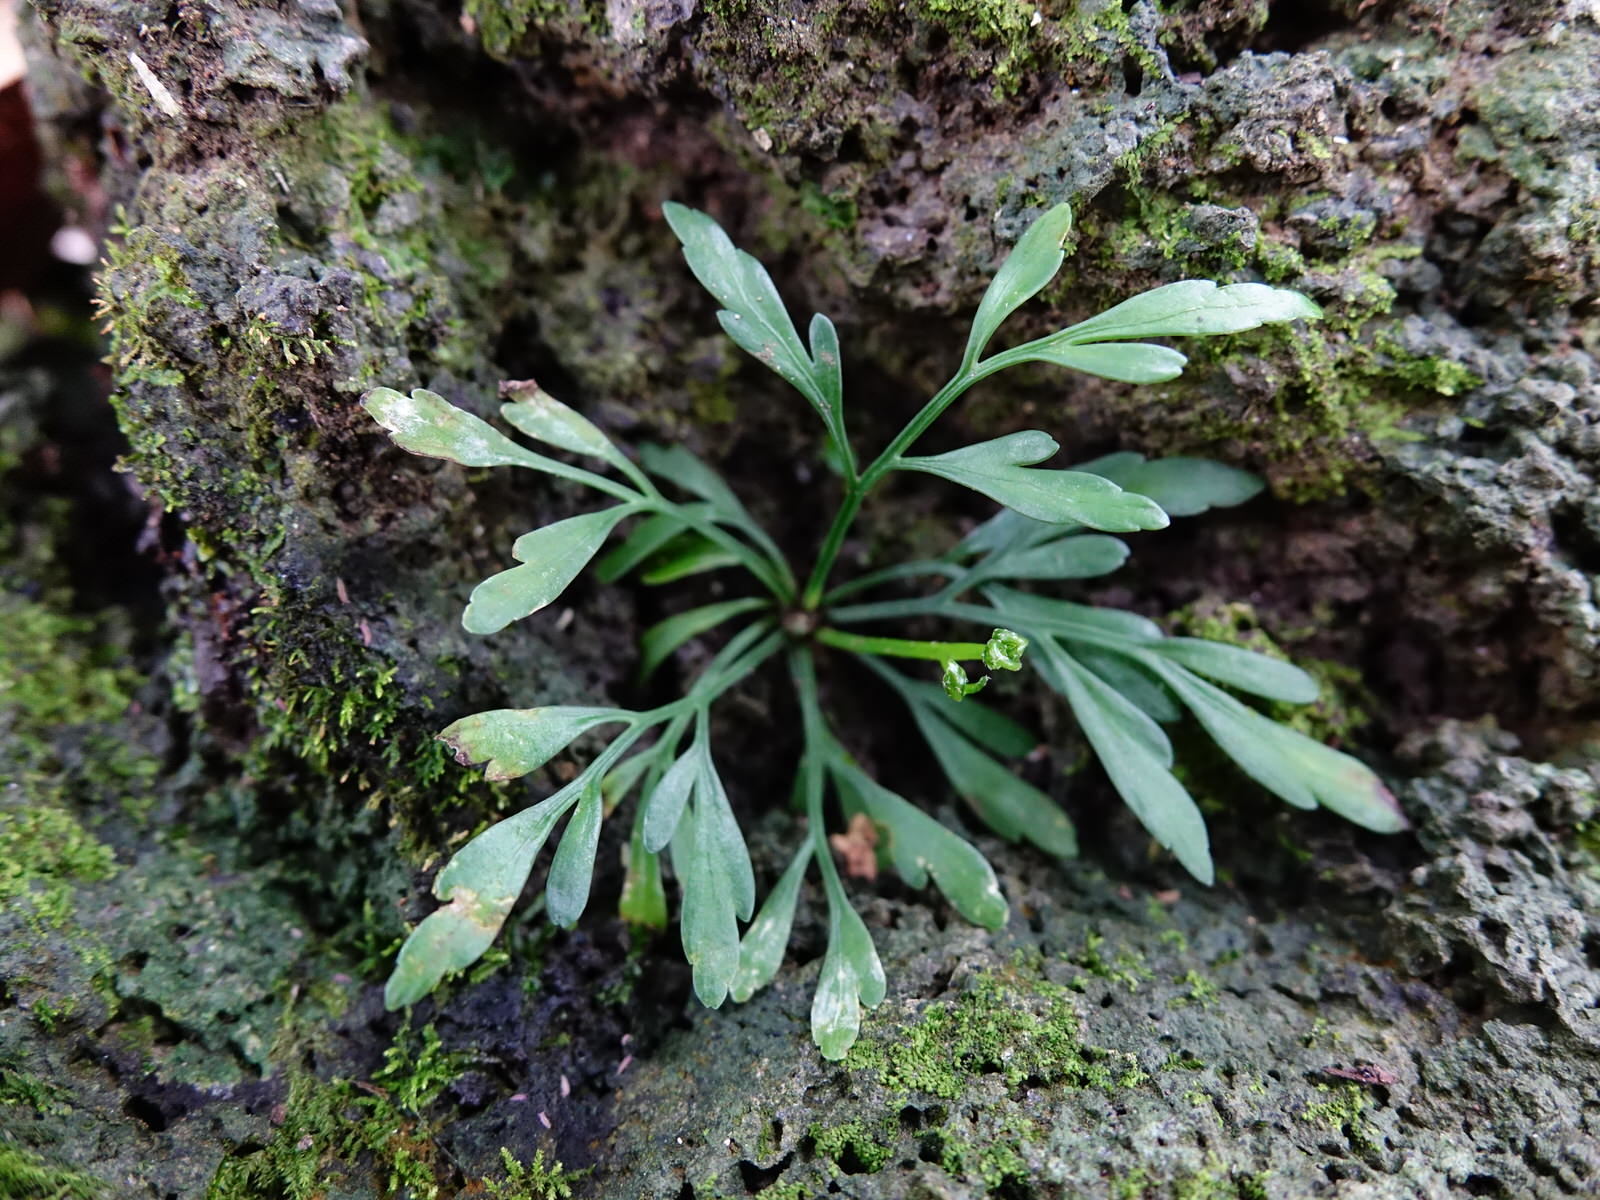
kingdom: Plantae
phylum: Tracheophyta
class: Polypodiopsida
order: Polypodiales
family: Aspleniaceae
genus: Asplenium
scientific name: Asplenium flaccidum
